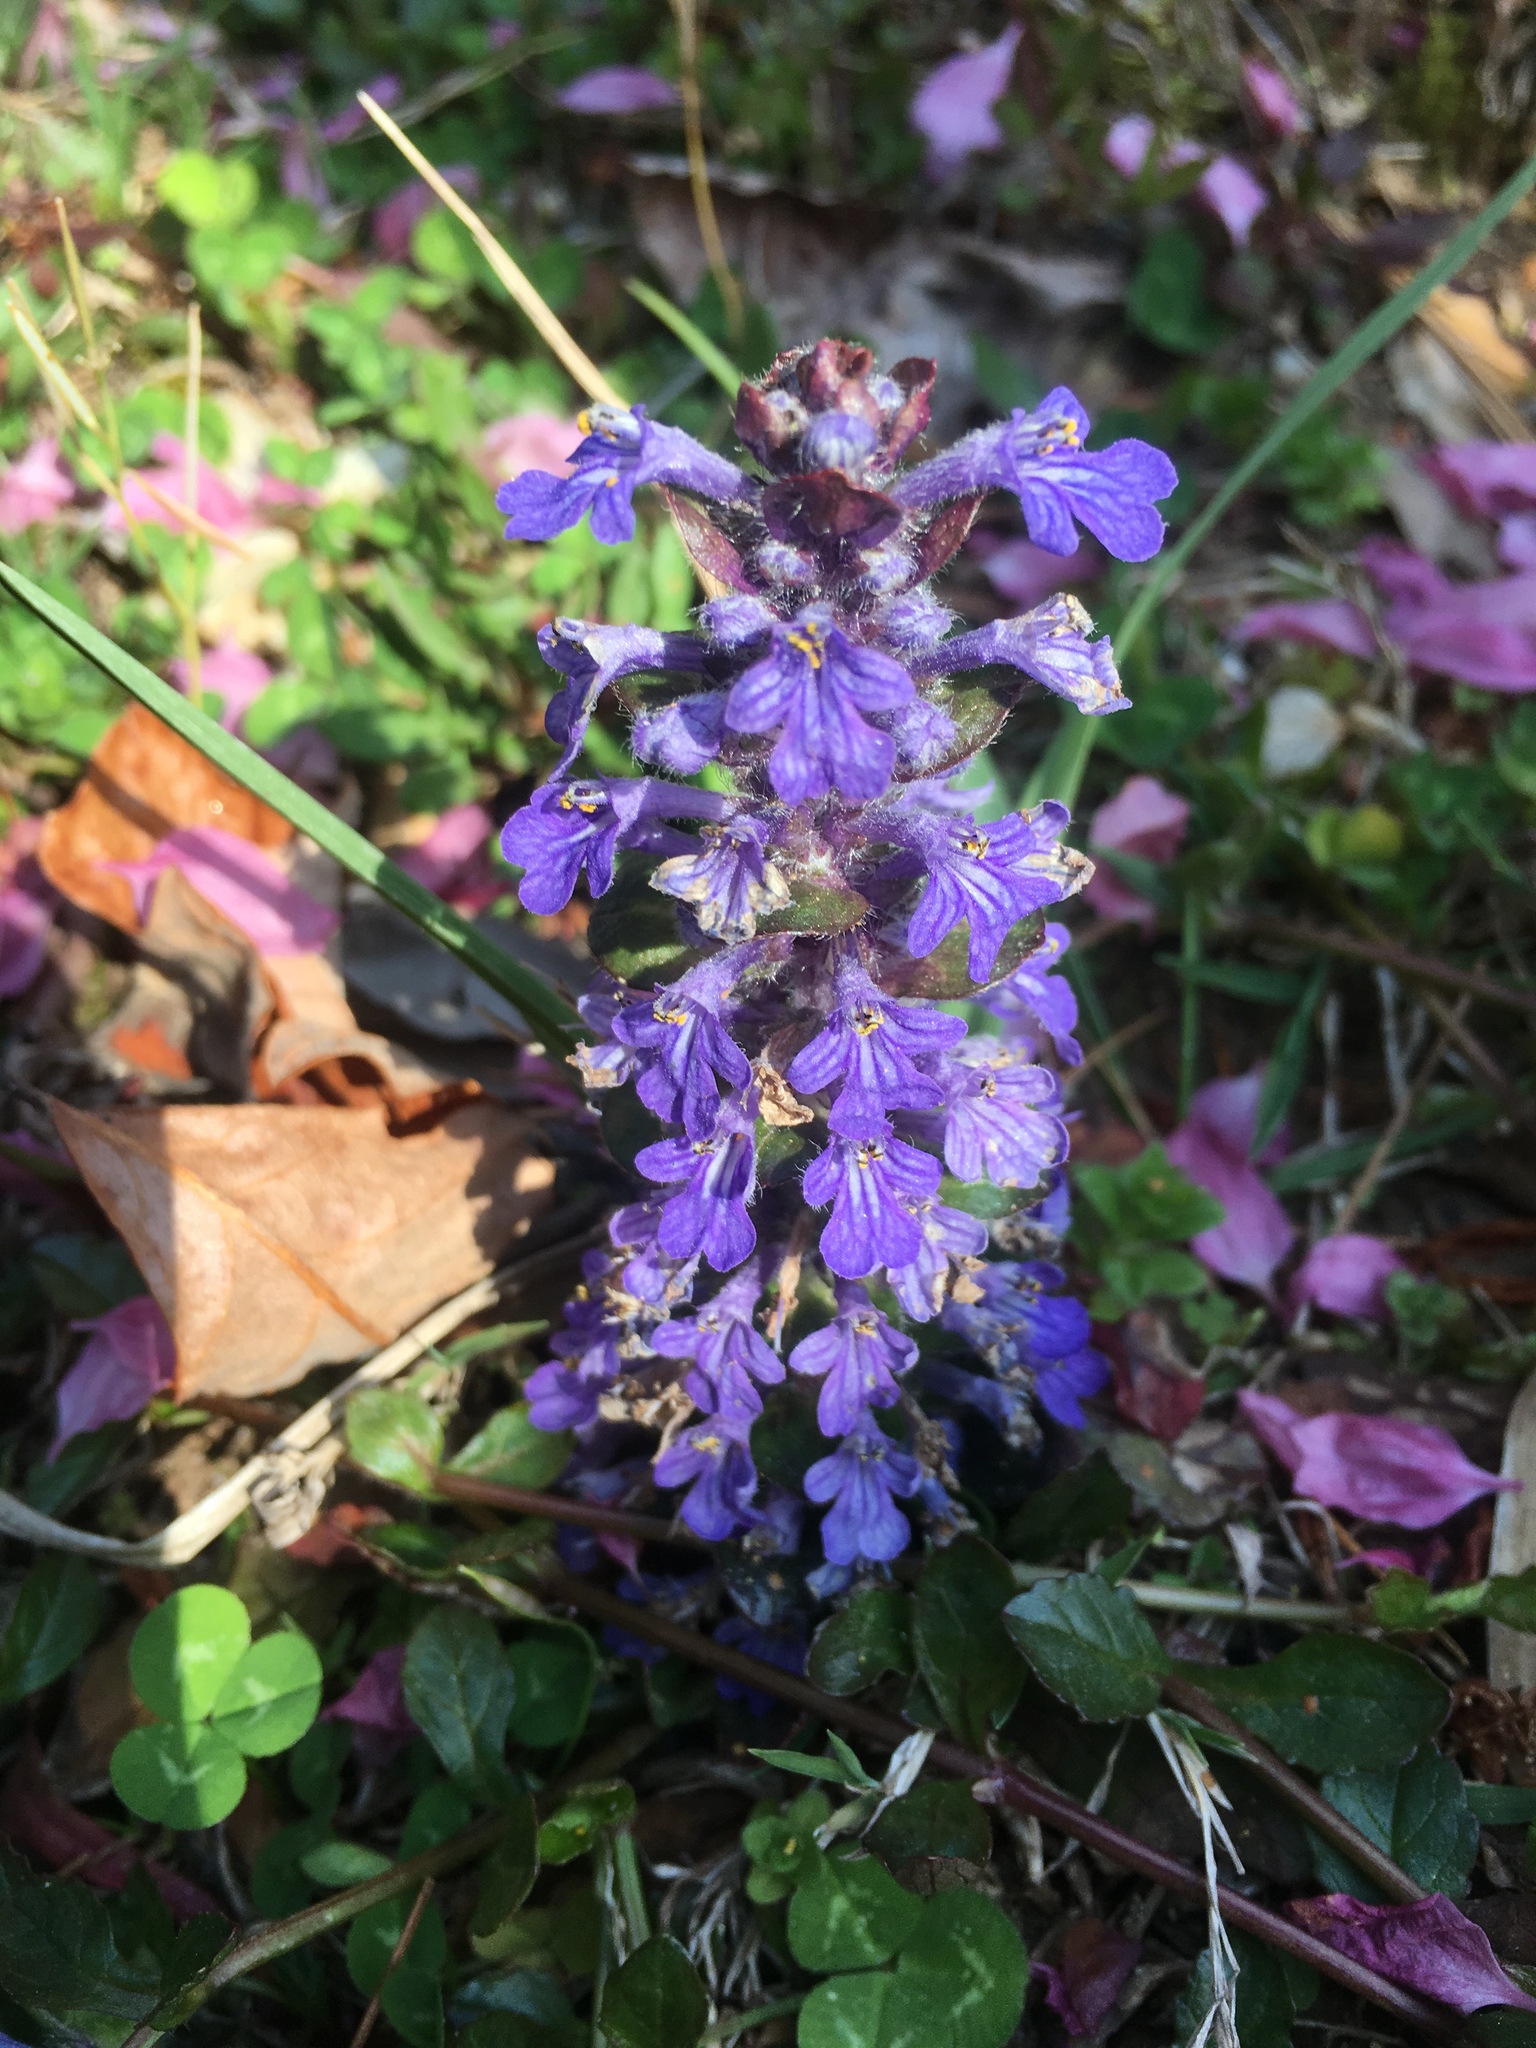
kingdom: Plantae
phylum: Tracheophyta
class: Magnoliopsida
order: Lamiales
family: Lamiaceae
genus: Ajuga
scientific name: Ajuga reptans
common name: Bugle
